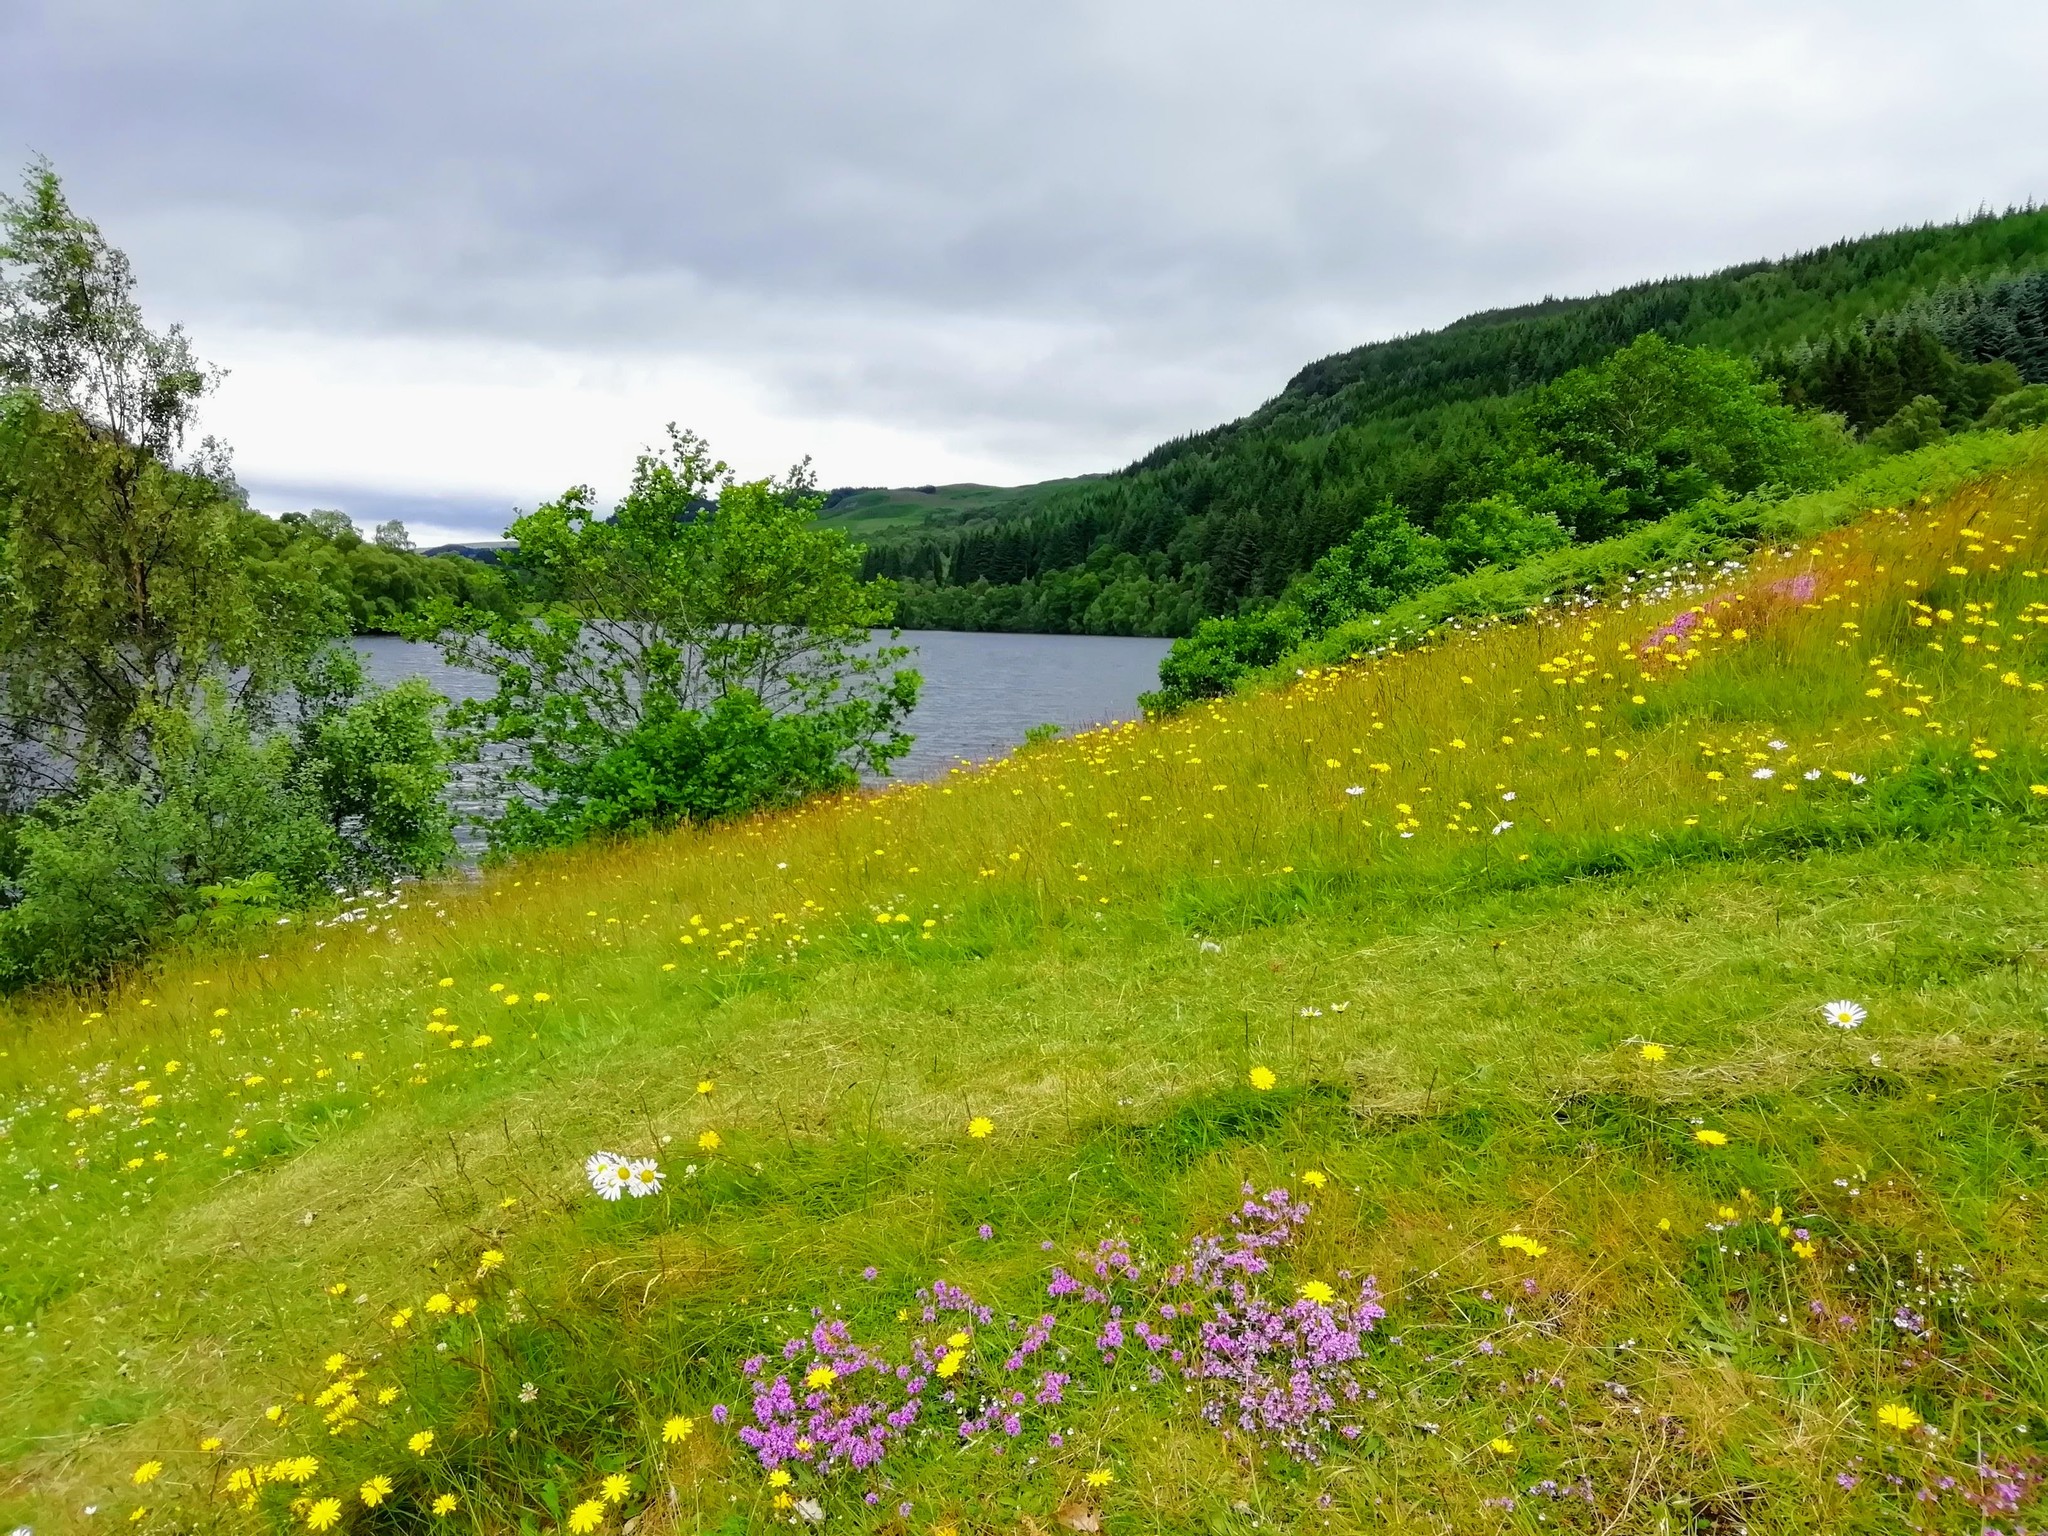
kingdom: Plantae
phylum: Tracheophyta
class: Magnoliopsida
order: Lamiales
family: Lamiaceae
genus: Thymus
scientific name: Thymus praecox
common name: Wild thyme
